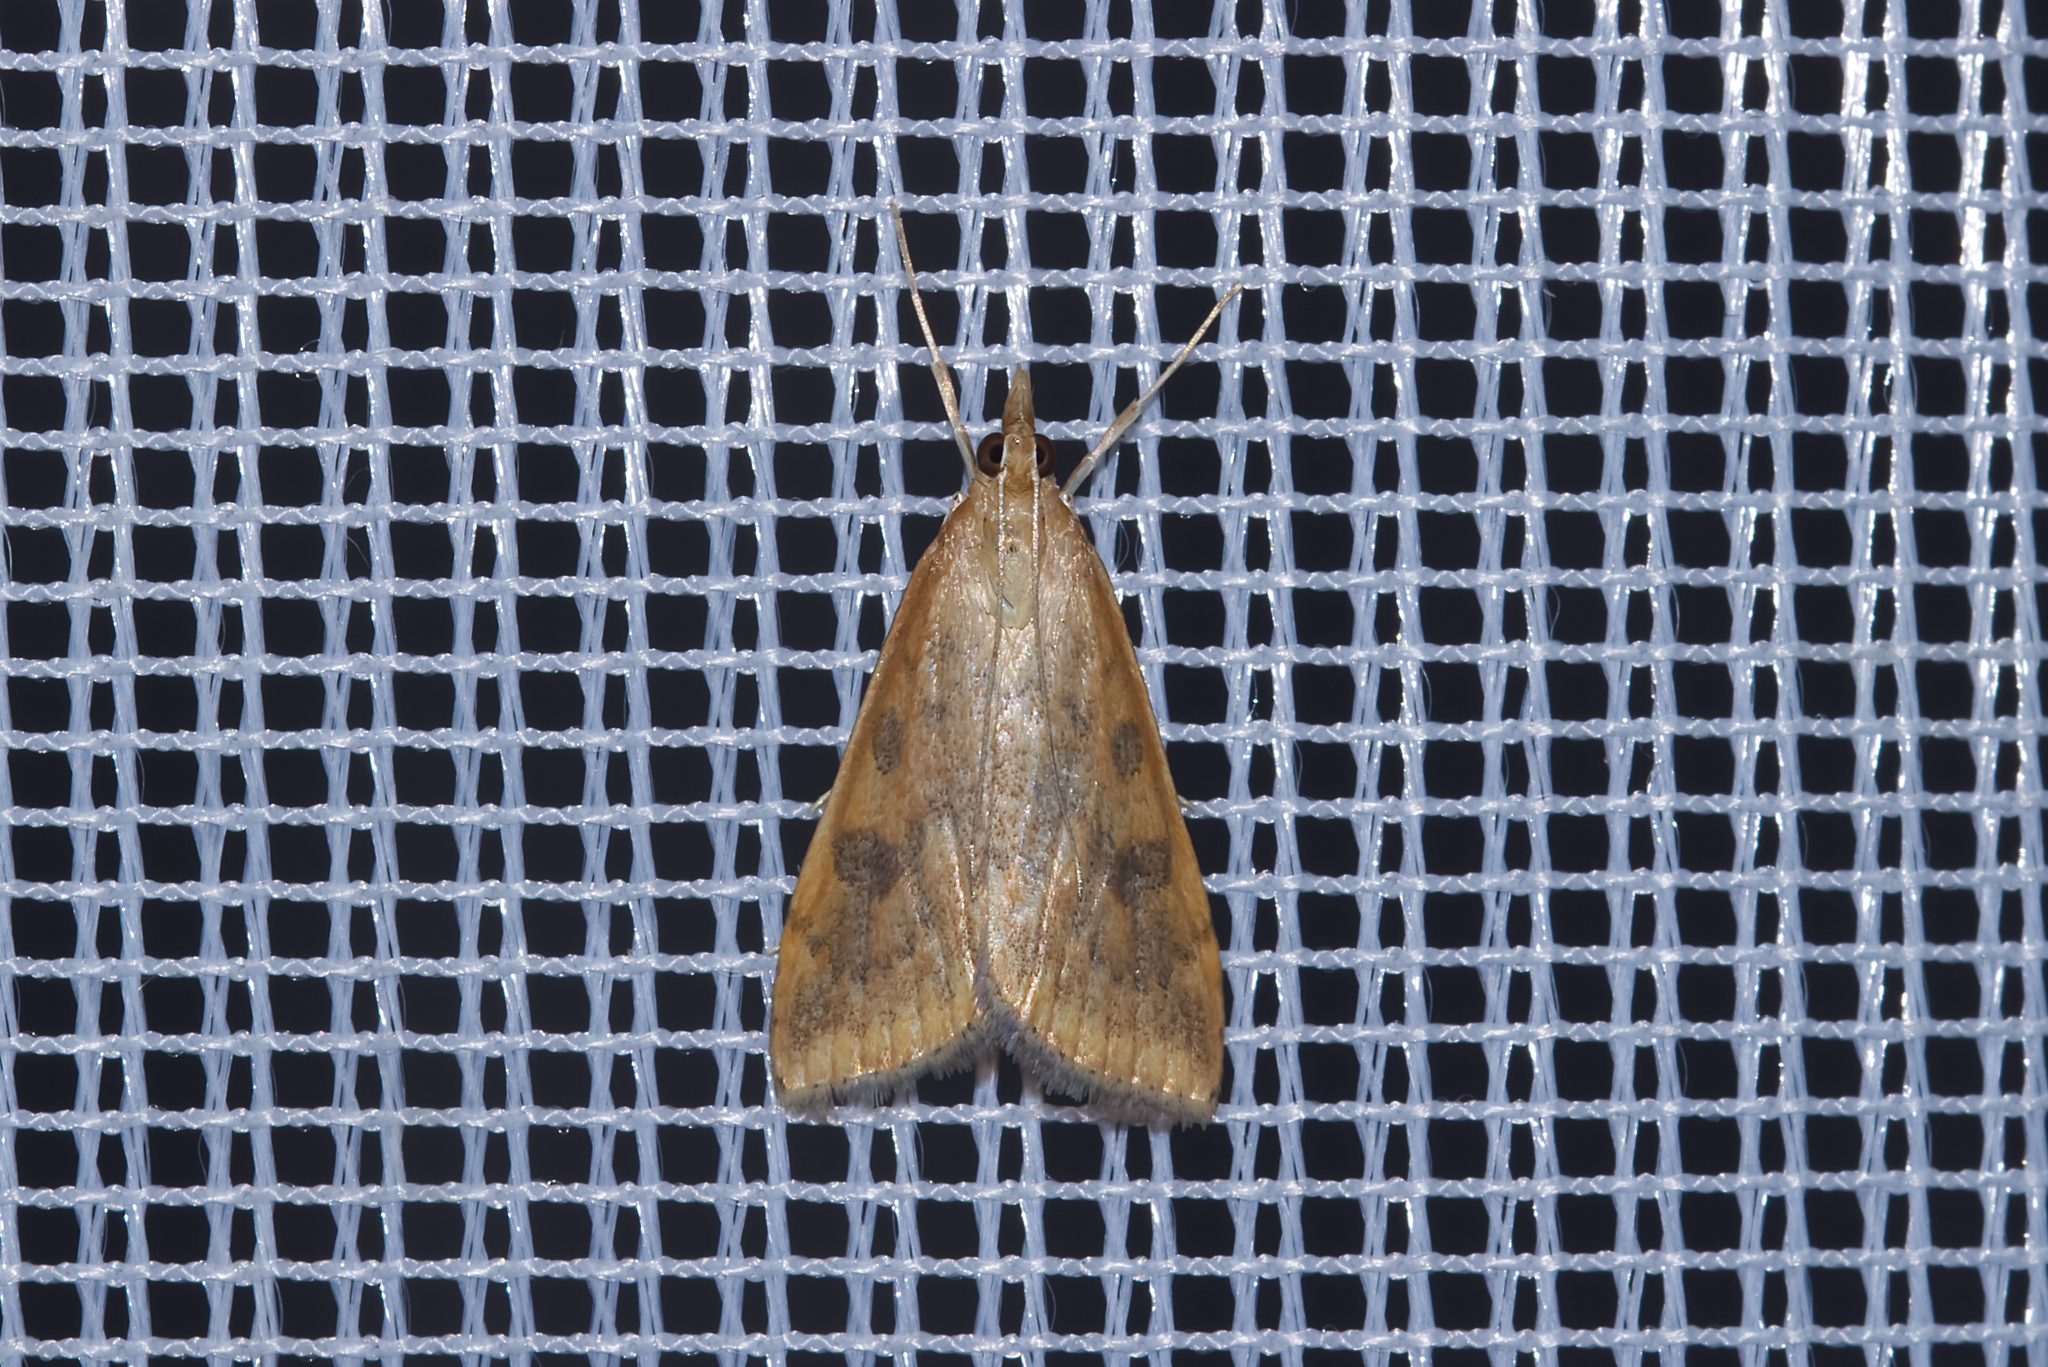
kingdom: Animalia
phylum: Arthropoda
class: Insecta
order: Lepidoptera
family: Crambidae
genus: Udea
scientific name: Udea ferrugalis
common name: Rusty dot
